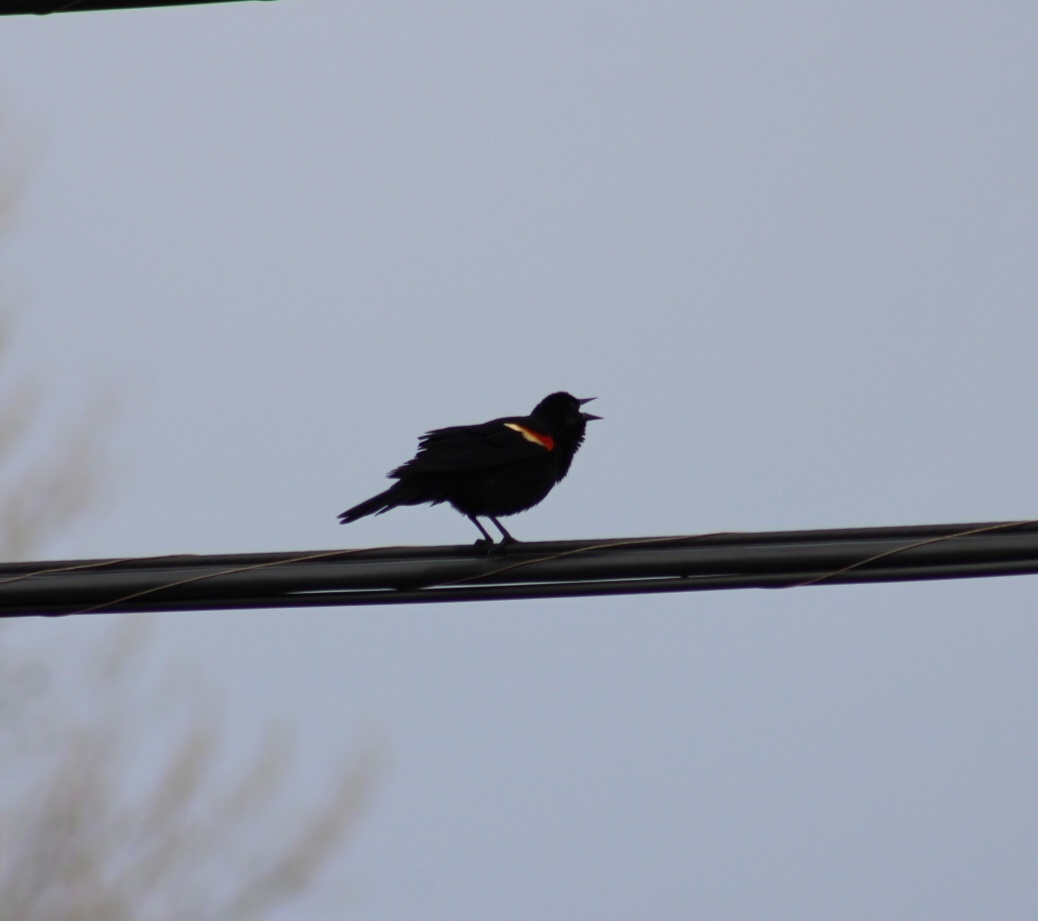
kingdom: Animalia
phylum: Chordata
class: Aves
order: Passeriformes
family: Icteridae
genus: Agelaius
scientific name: Agelaius phoeniceus
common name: Red-winged blackbird
